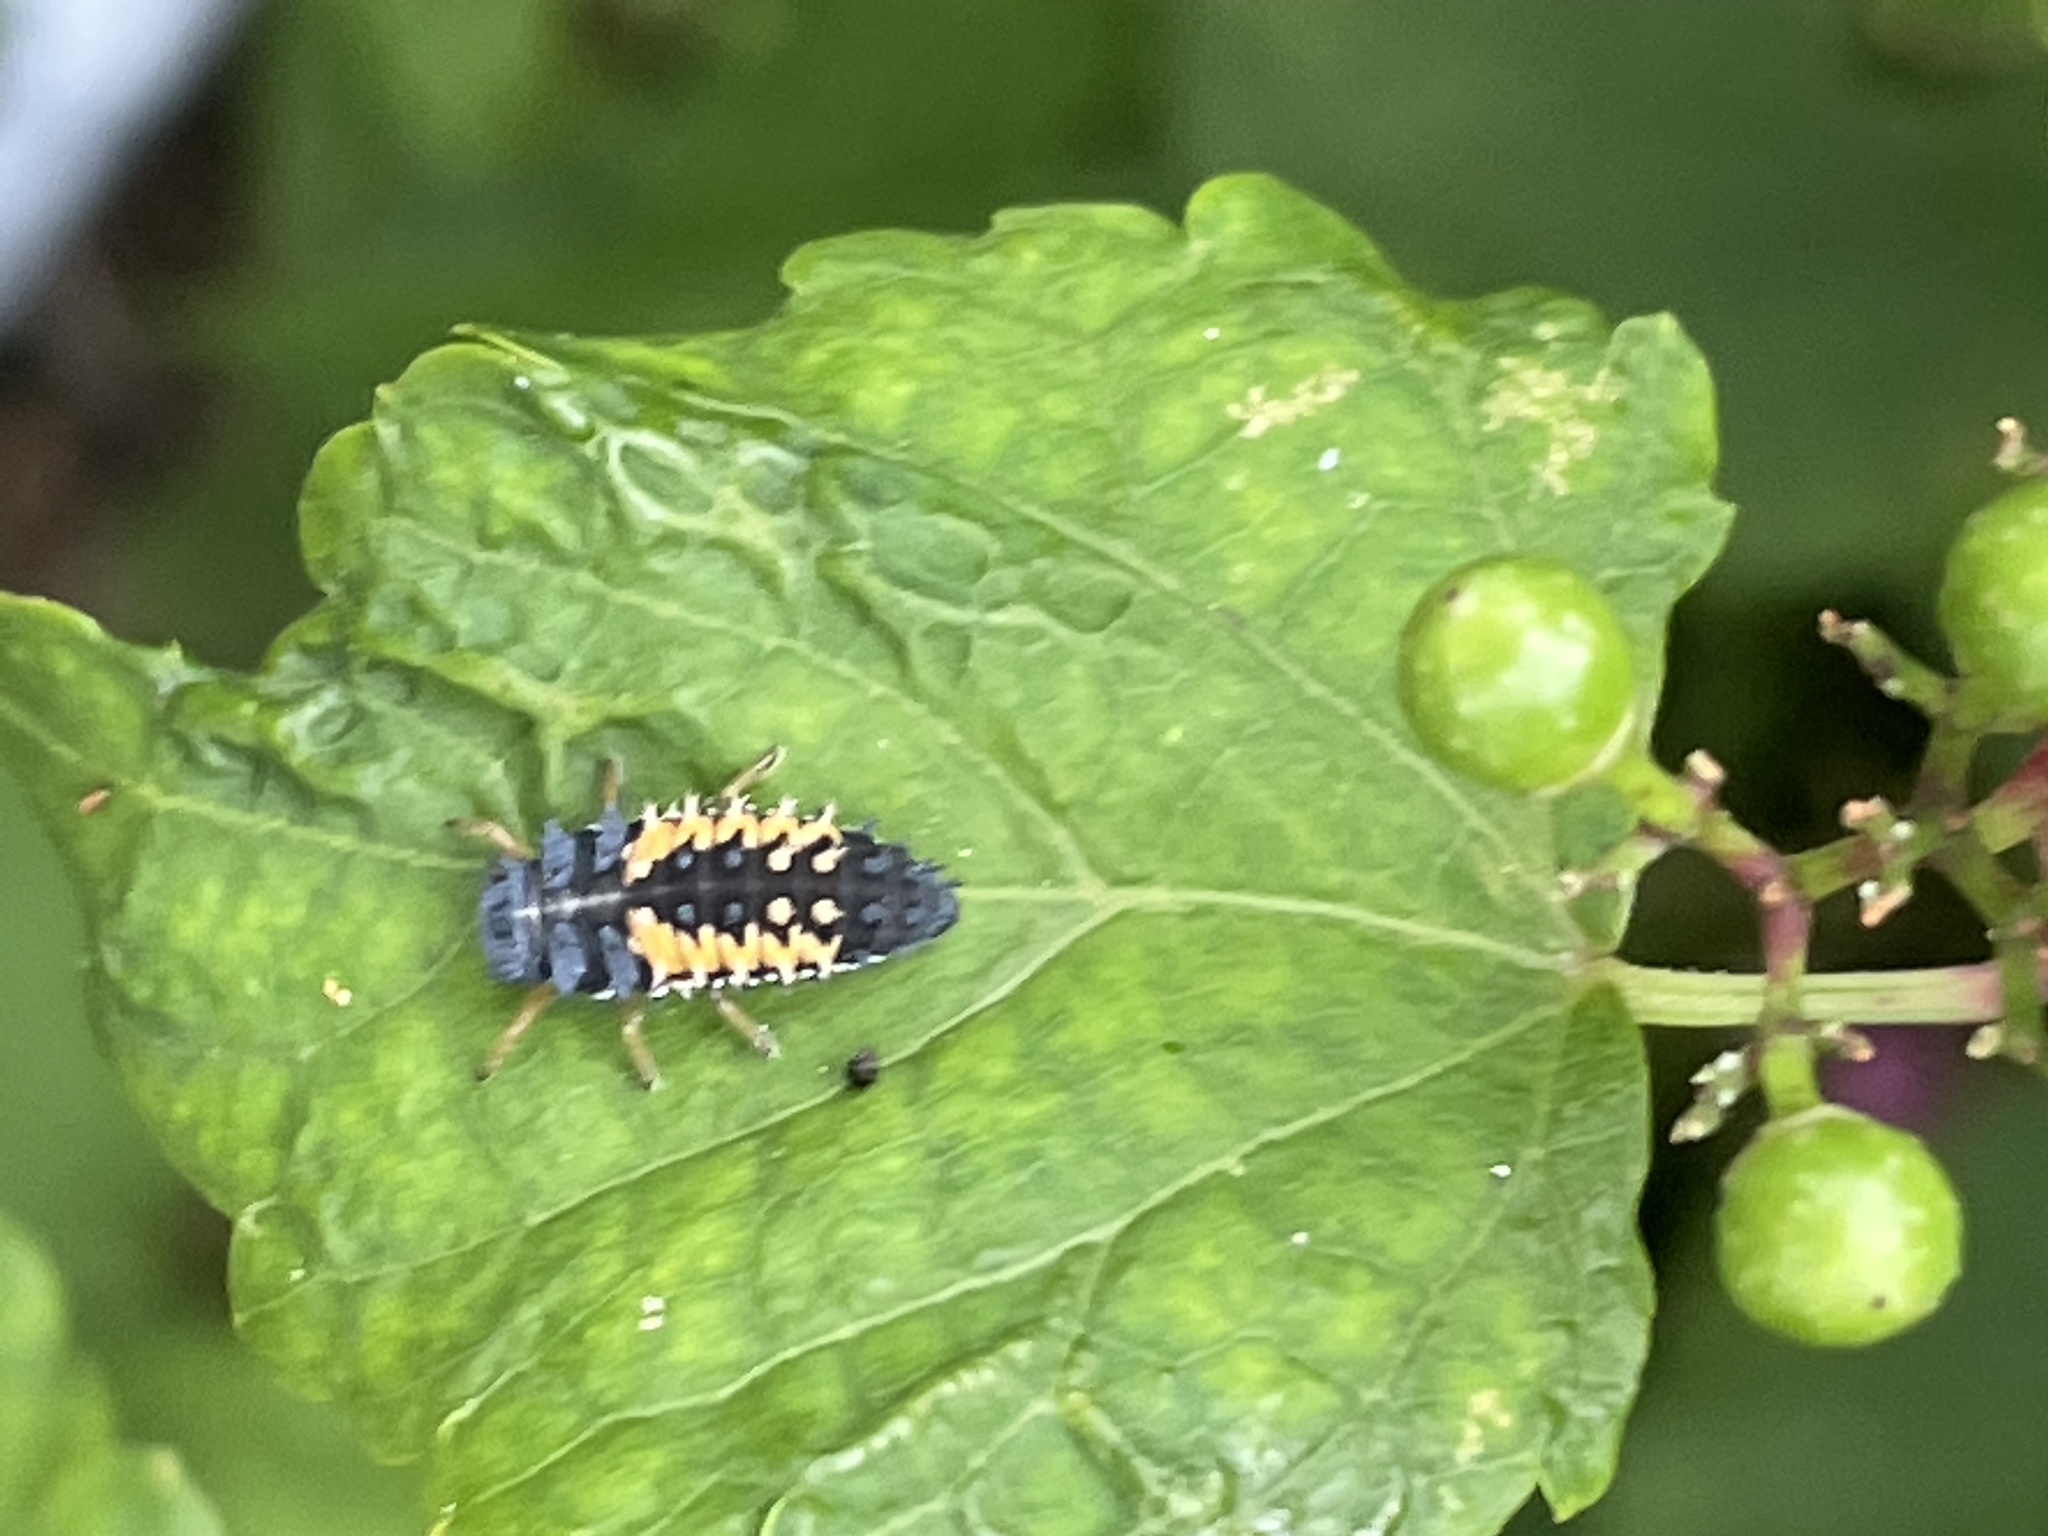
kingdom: Animalia
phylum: Arthropoda
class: Insecta
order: Coleoptera
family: Coccinellidae
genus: Harmonia
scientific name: Harmonia axyridis
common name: Harlequin ladybird
